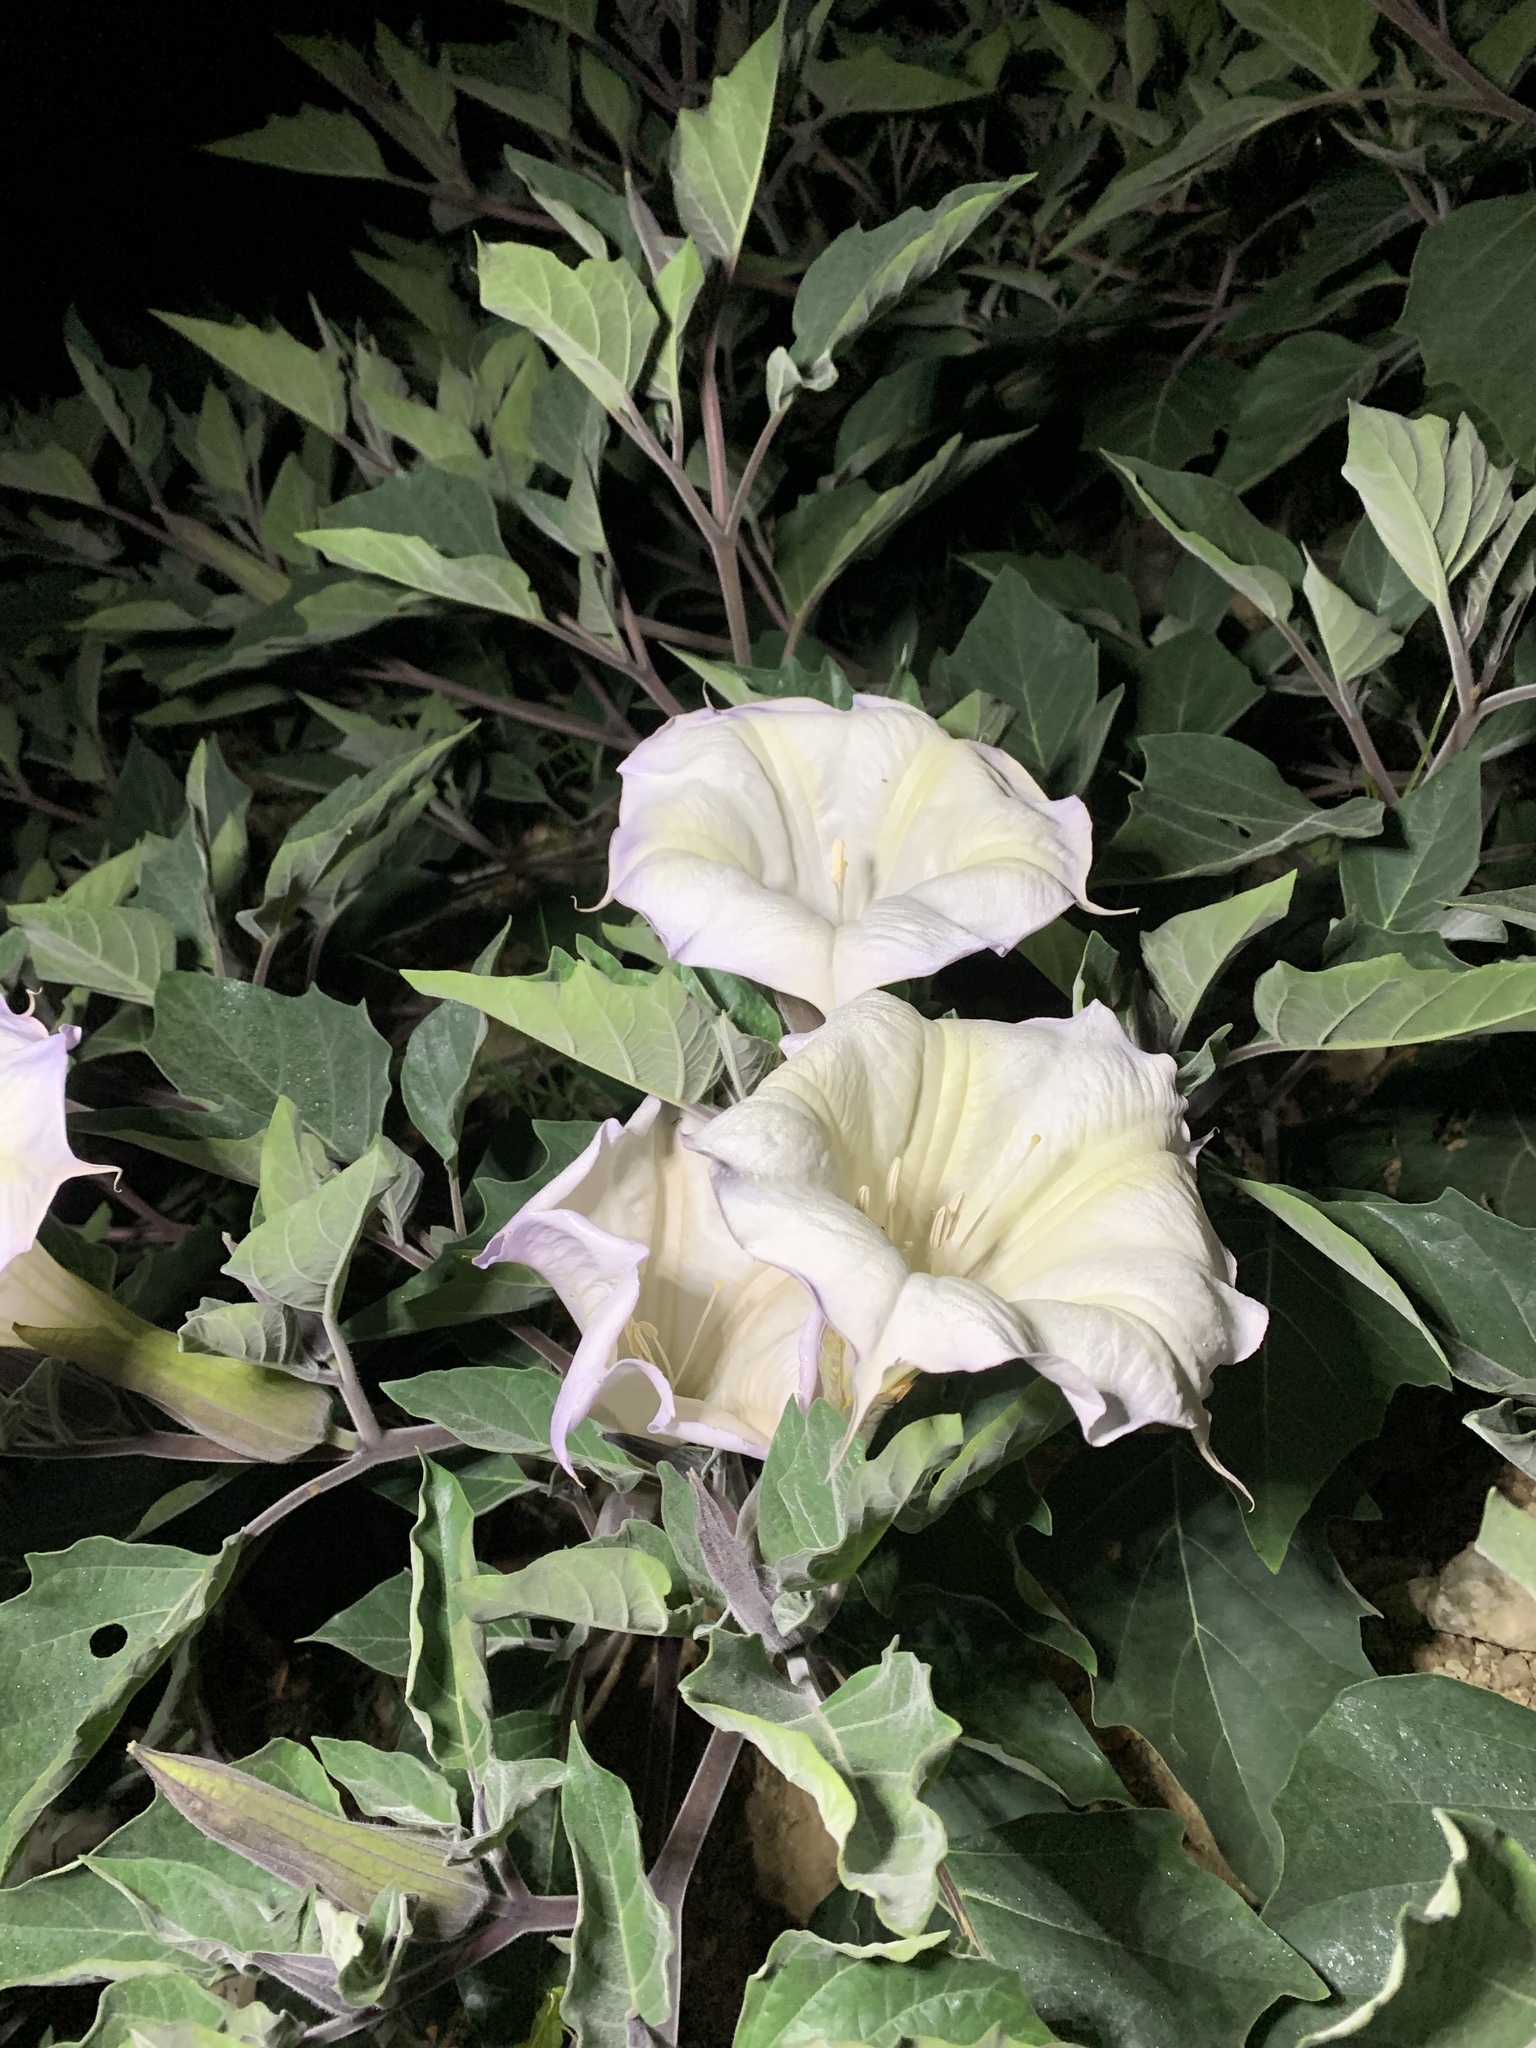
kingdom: Plantae
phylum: Tracheophyta
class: Magnoliopsida
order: Solanales
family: Solanaceae
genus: Datura
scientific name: Datura wrightii
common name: Sacred thorn-apple
